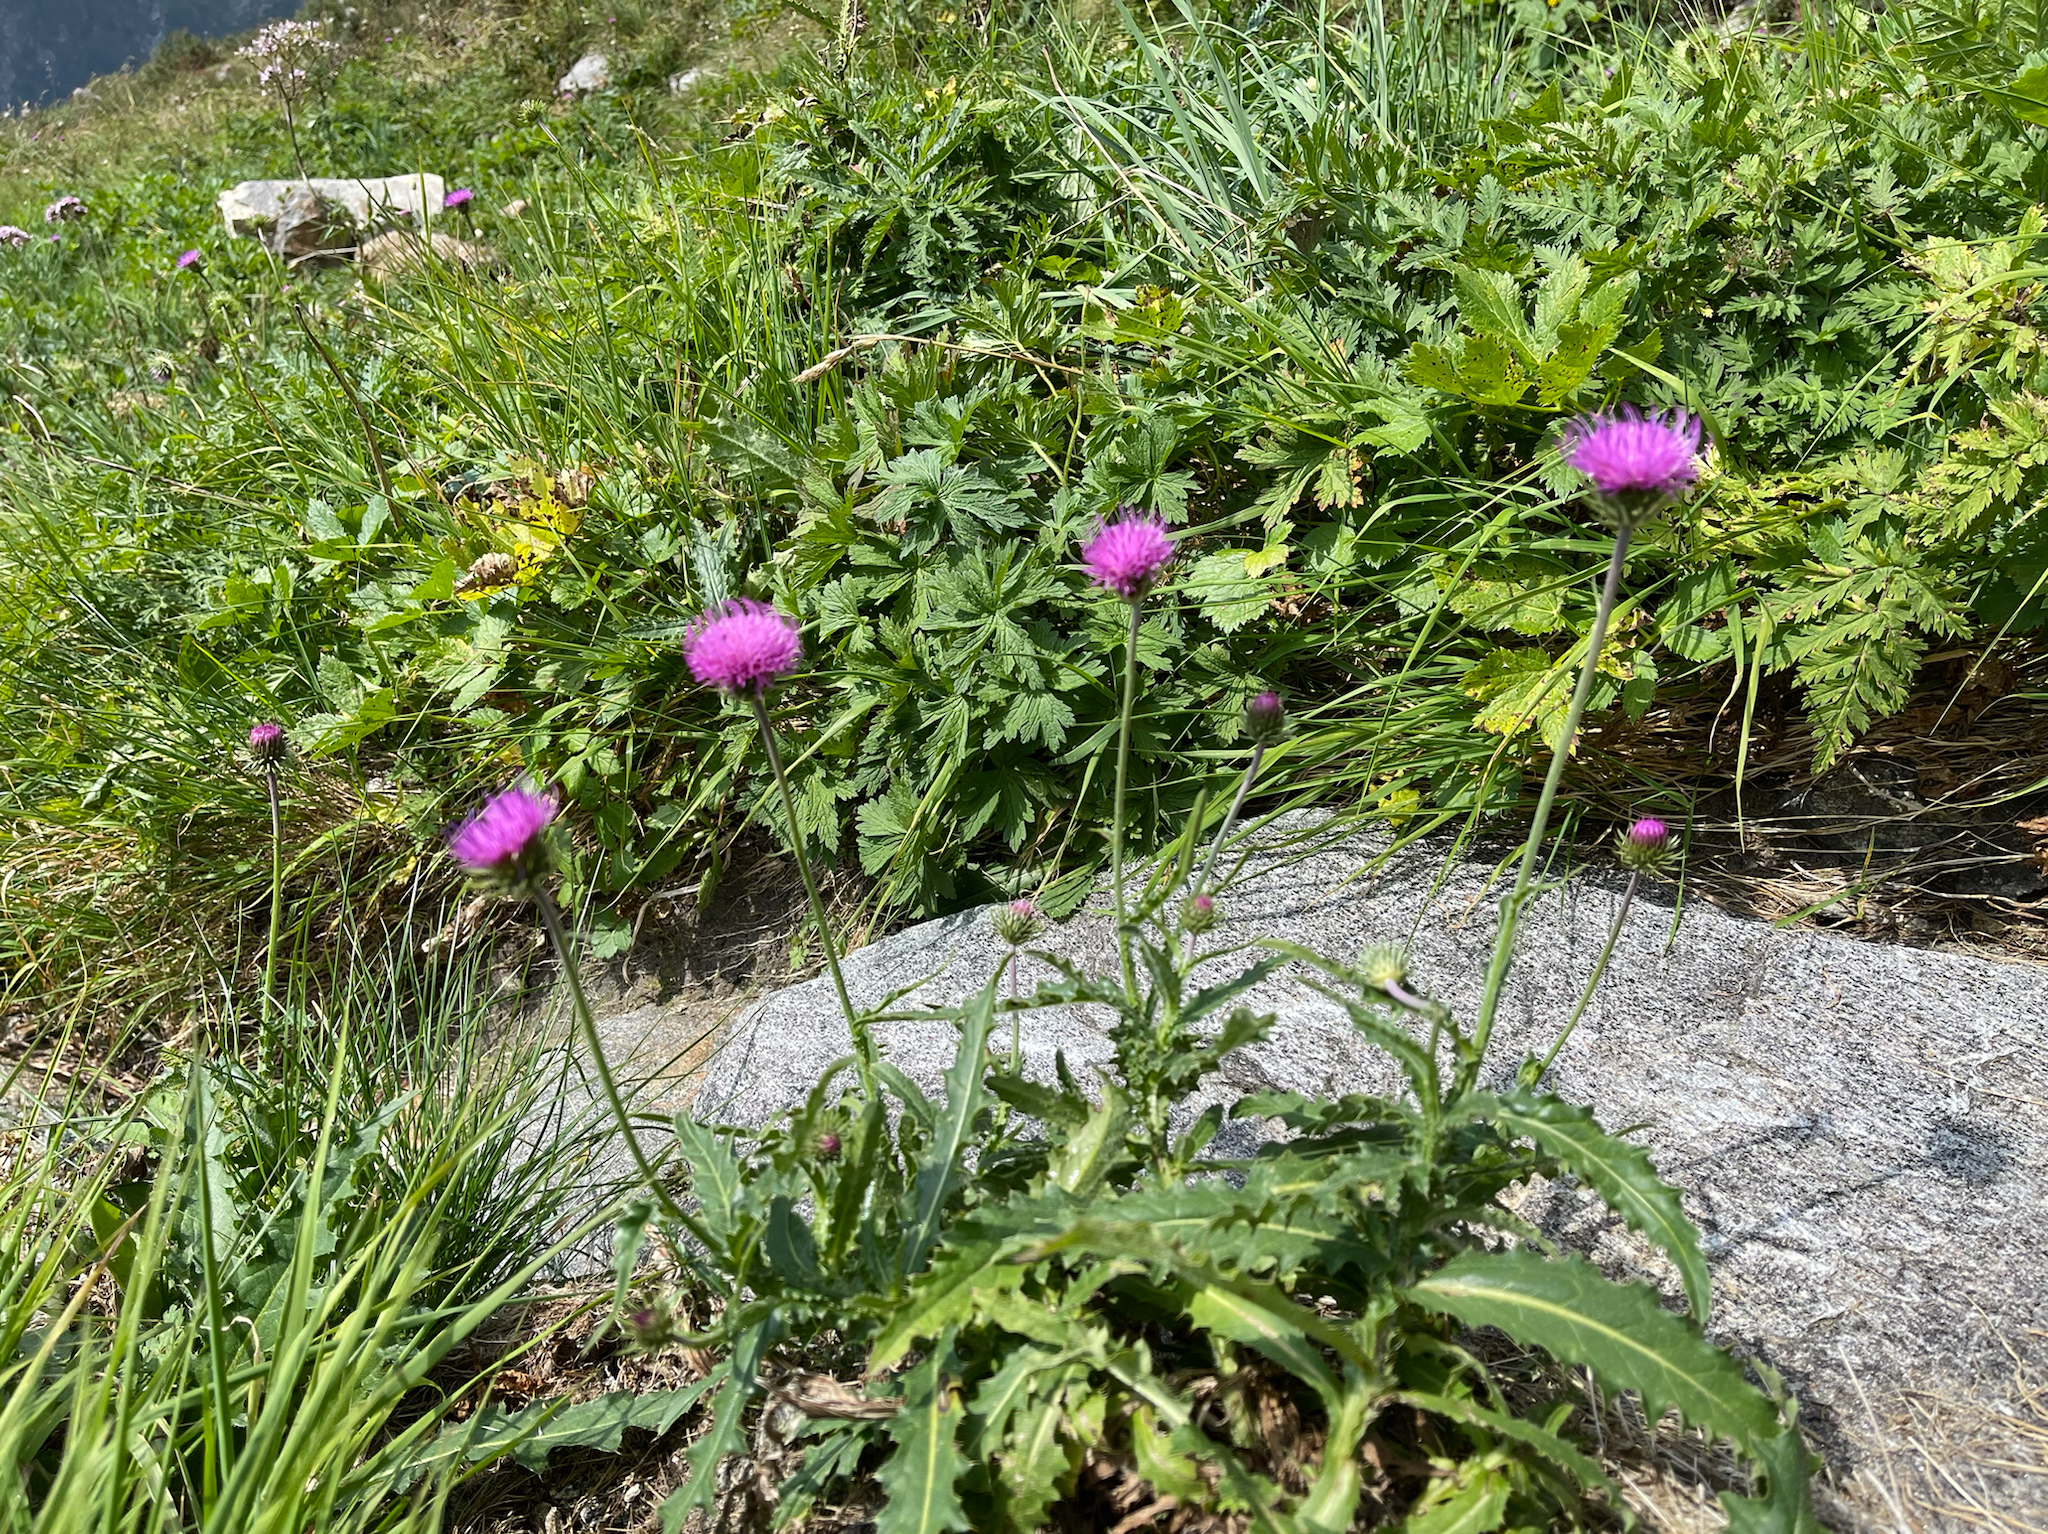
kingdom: Plantae
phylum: Tracheophyta
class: Magnoliopsida
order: Asterales
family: Asteraceae
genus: Carduus
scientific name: Carduus defloratus
